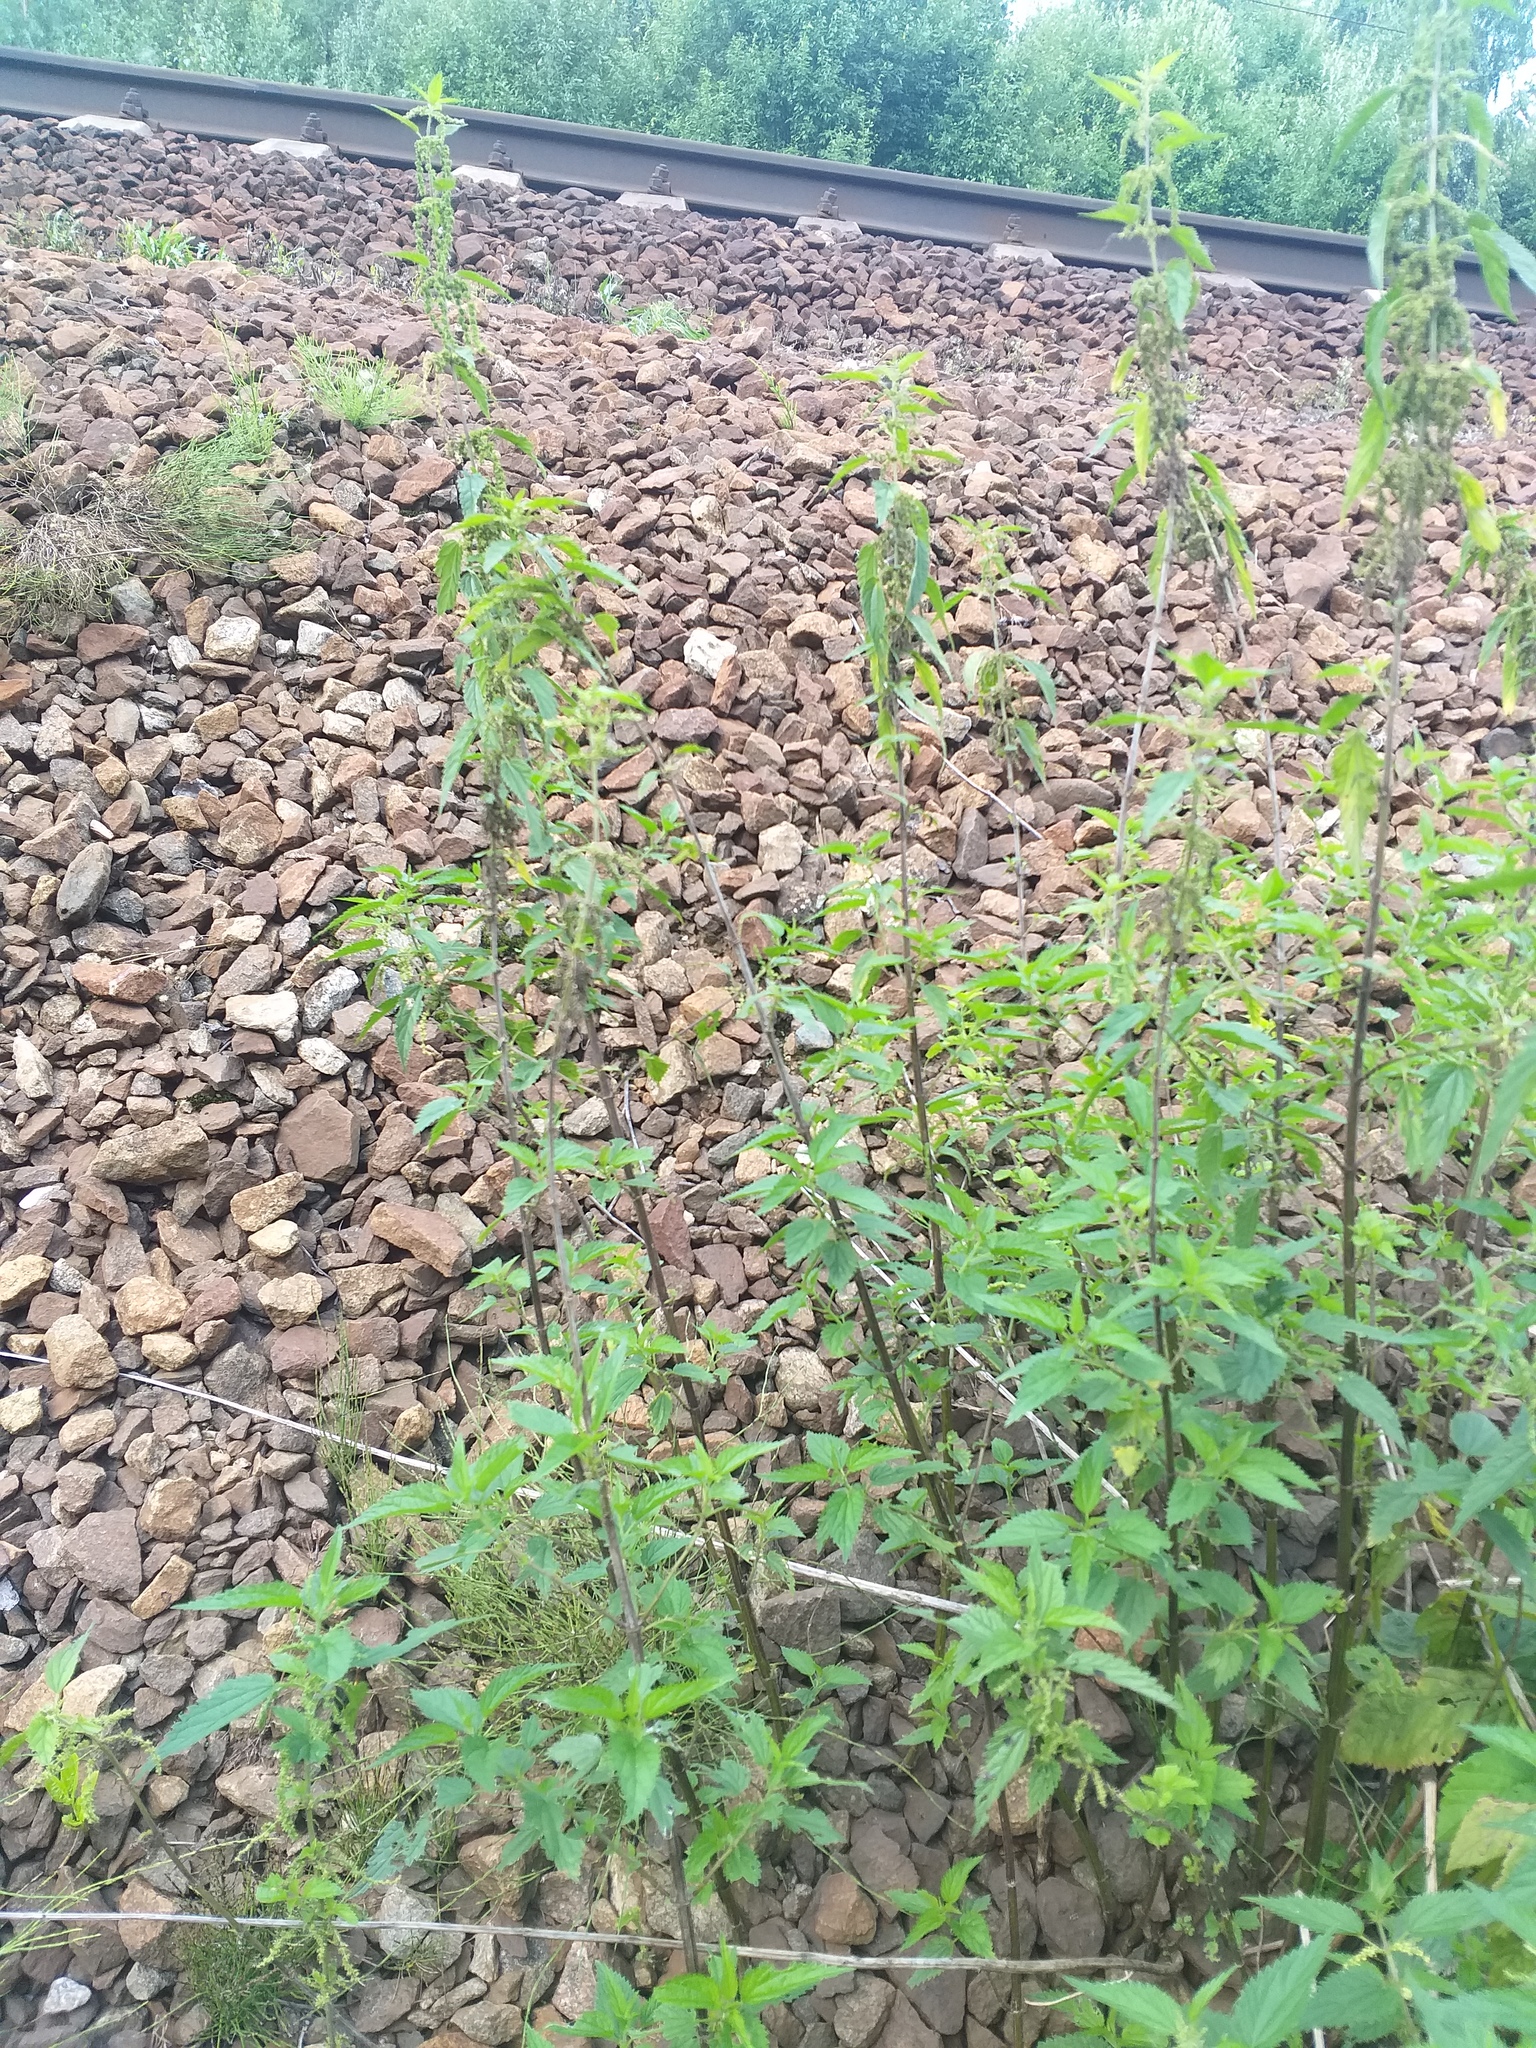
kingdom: Plantae
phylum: Tracheophyta
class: Magnoliopsida
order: Rosales
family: Urticaceae
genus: Urtica
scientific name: Urtica dioica
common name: Common nettle
